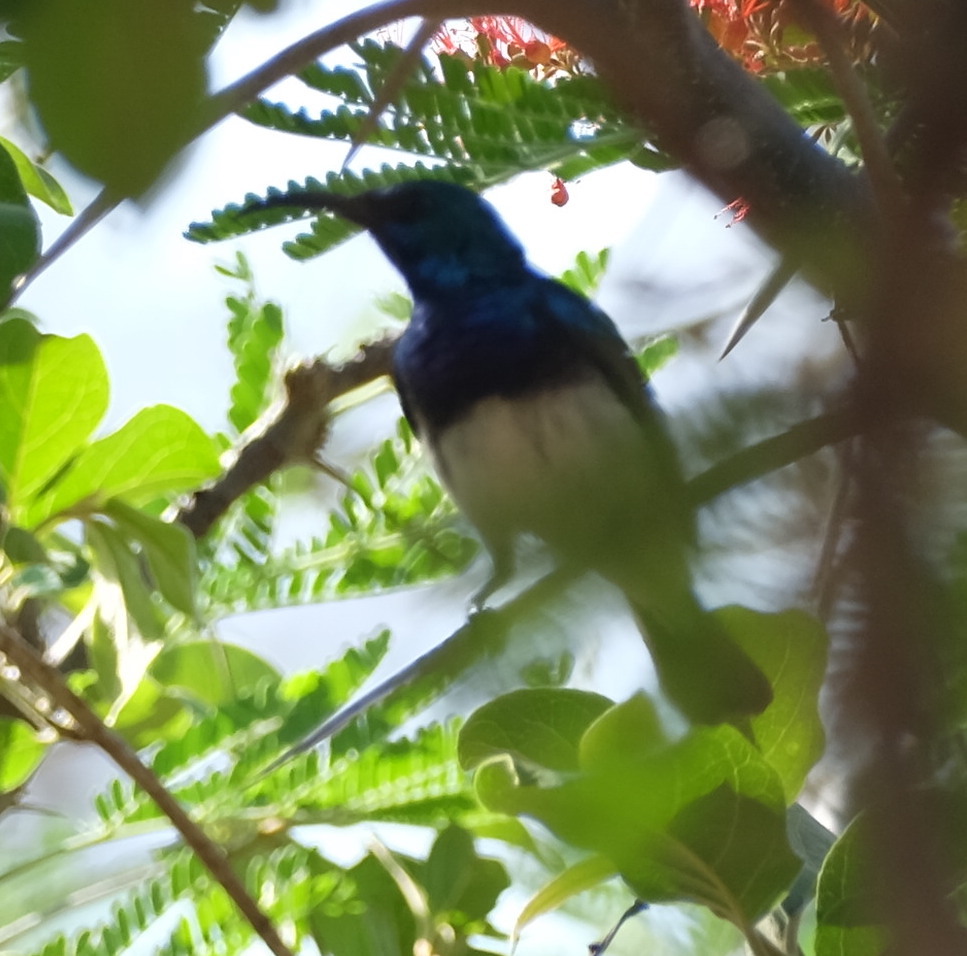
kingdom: Animalia
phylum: Chordata
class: Aves
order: Passeriformes
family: Nectariniidae
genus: Cinnyris
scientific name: Cinnyris talatala
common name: White-bellied sunbird
